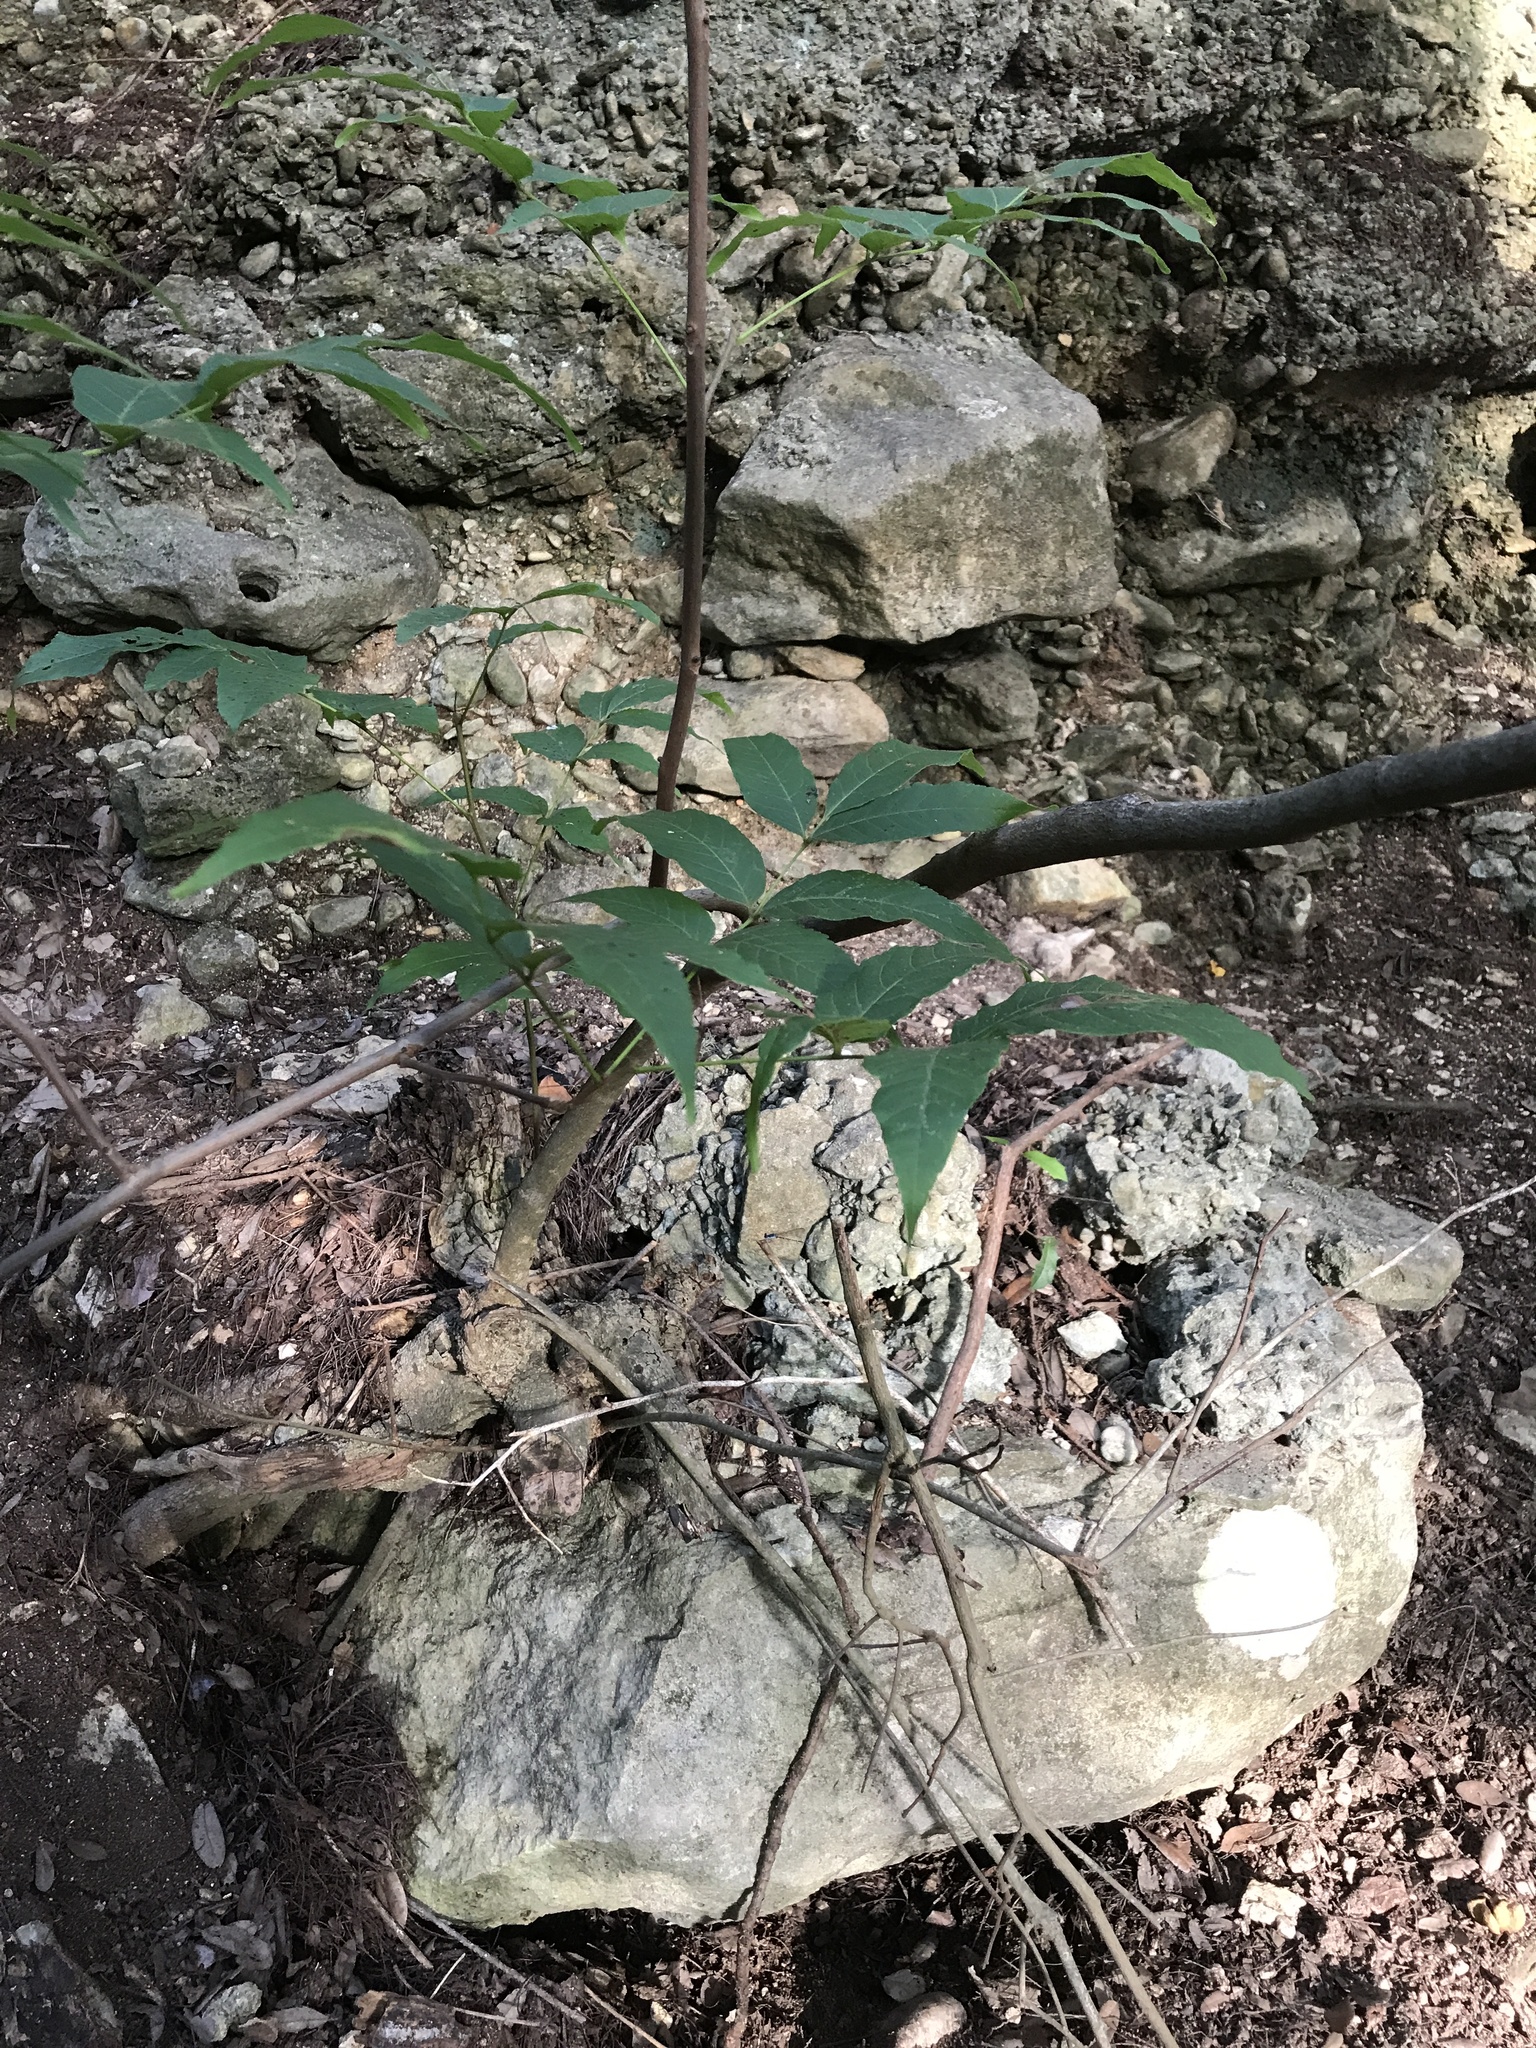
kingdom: Plantae
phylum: Tracheophyta
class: Magnoliopsida
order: Sapindales
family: Sapindaceae
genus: Ungnadia
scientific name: Ungnadia speciosa
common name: Texas-buckeye
